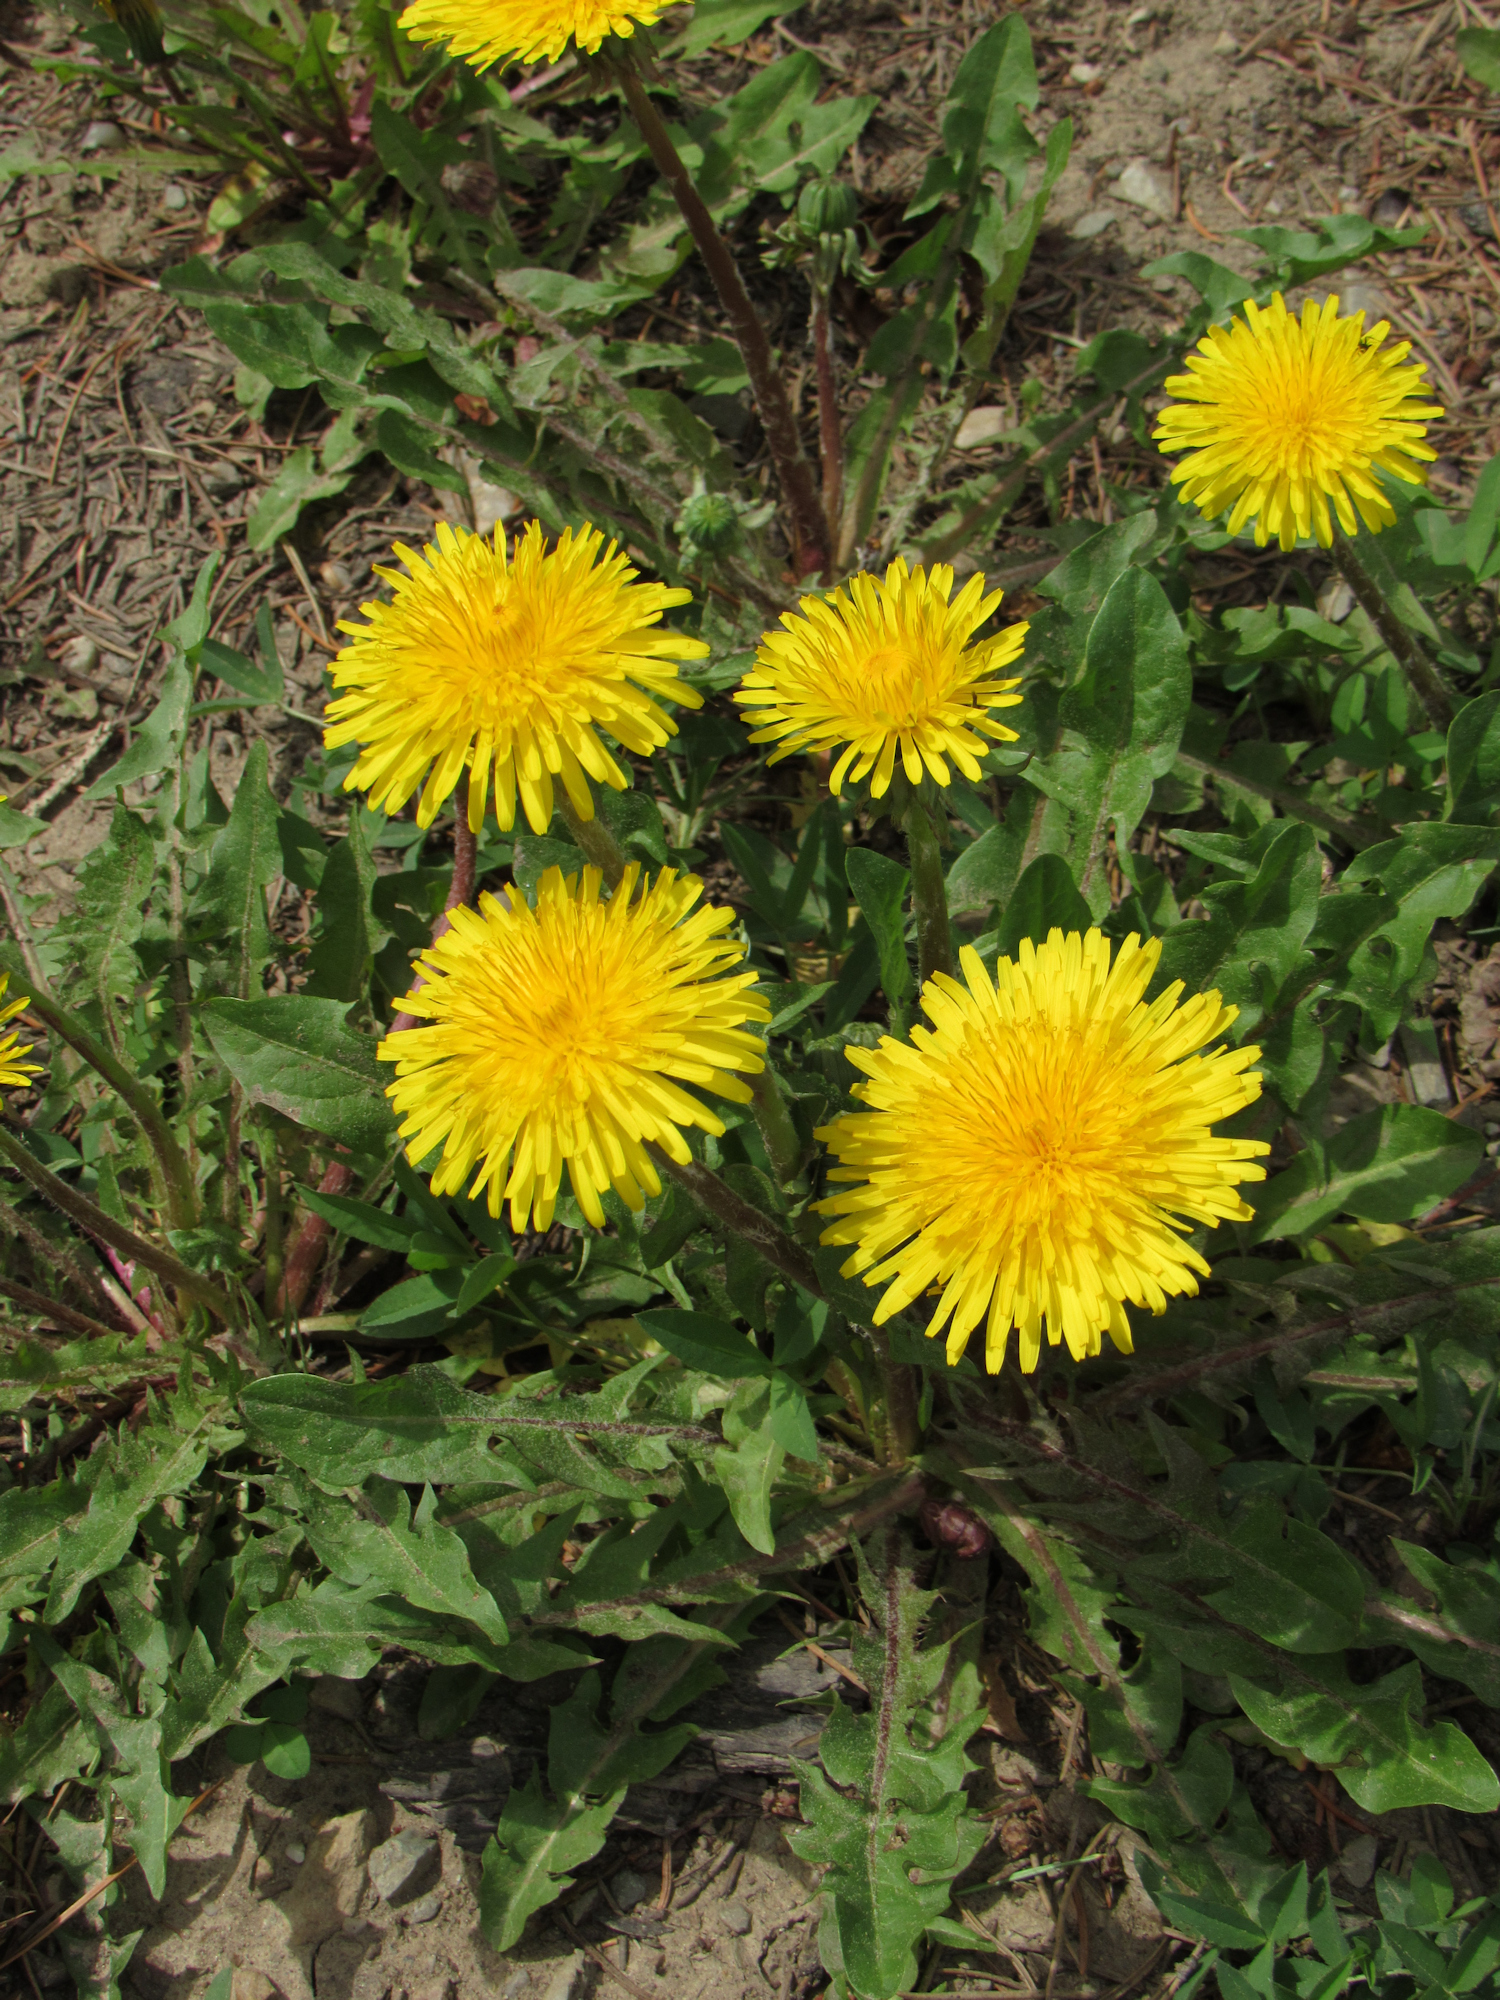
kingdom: Plantae
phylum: Tracheophyta
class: Magnoliopsida
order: Asterales
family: Asteraceae
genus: Taraxacum
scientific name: Taraxacum officinale
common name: Common dandelion
